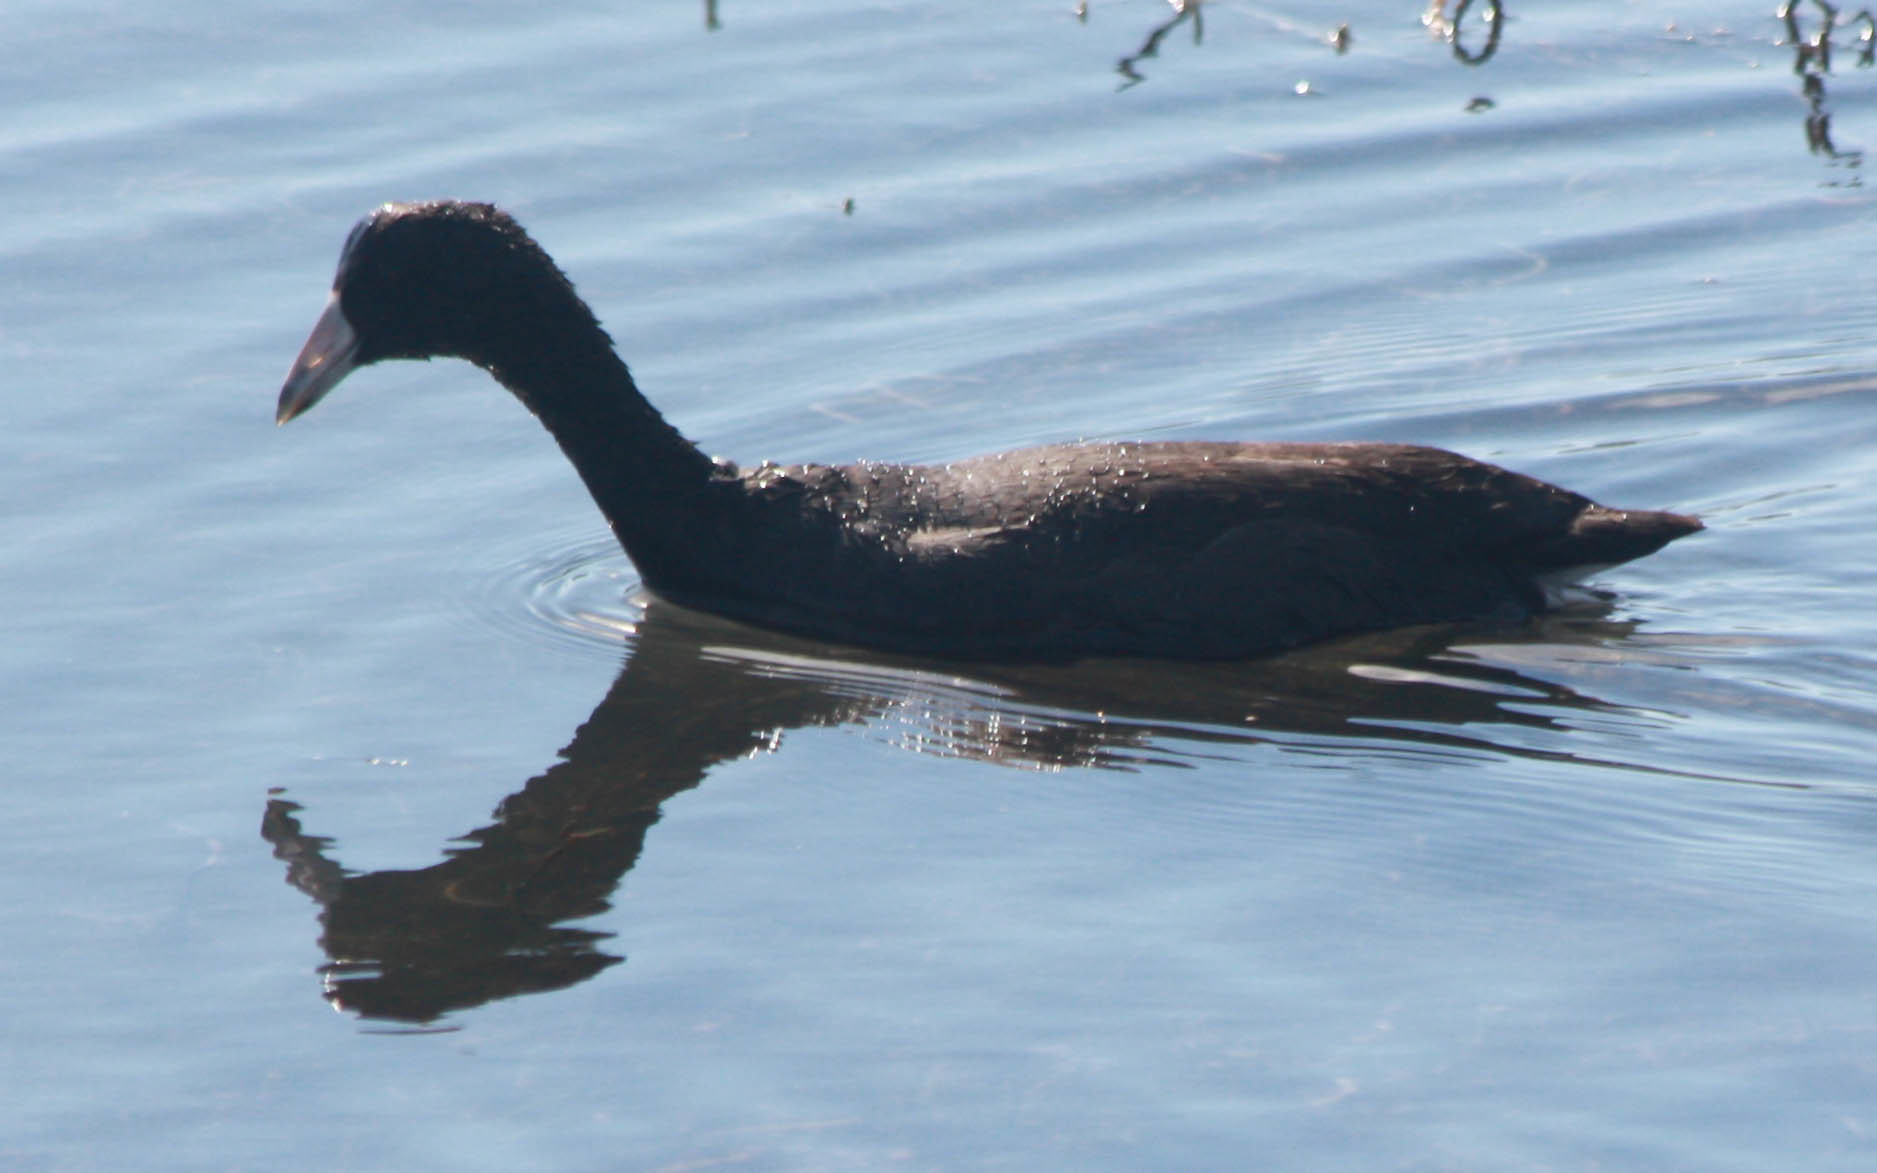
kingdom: Animalia
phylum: Chordata
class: Aves
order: Gruiformes
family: Rallidae
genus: Fulica
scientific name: Fulica americana
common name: American coot
